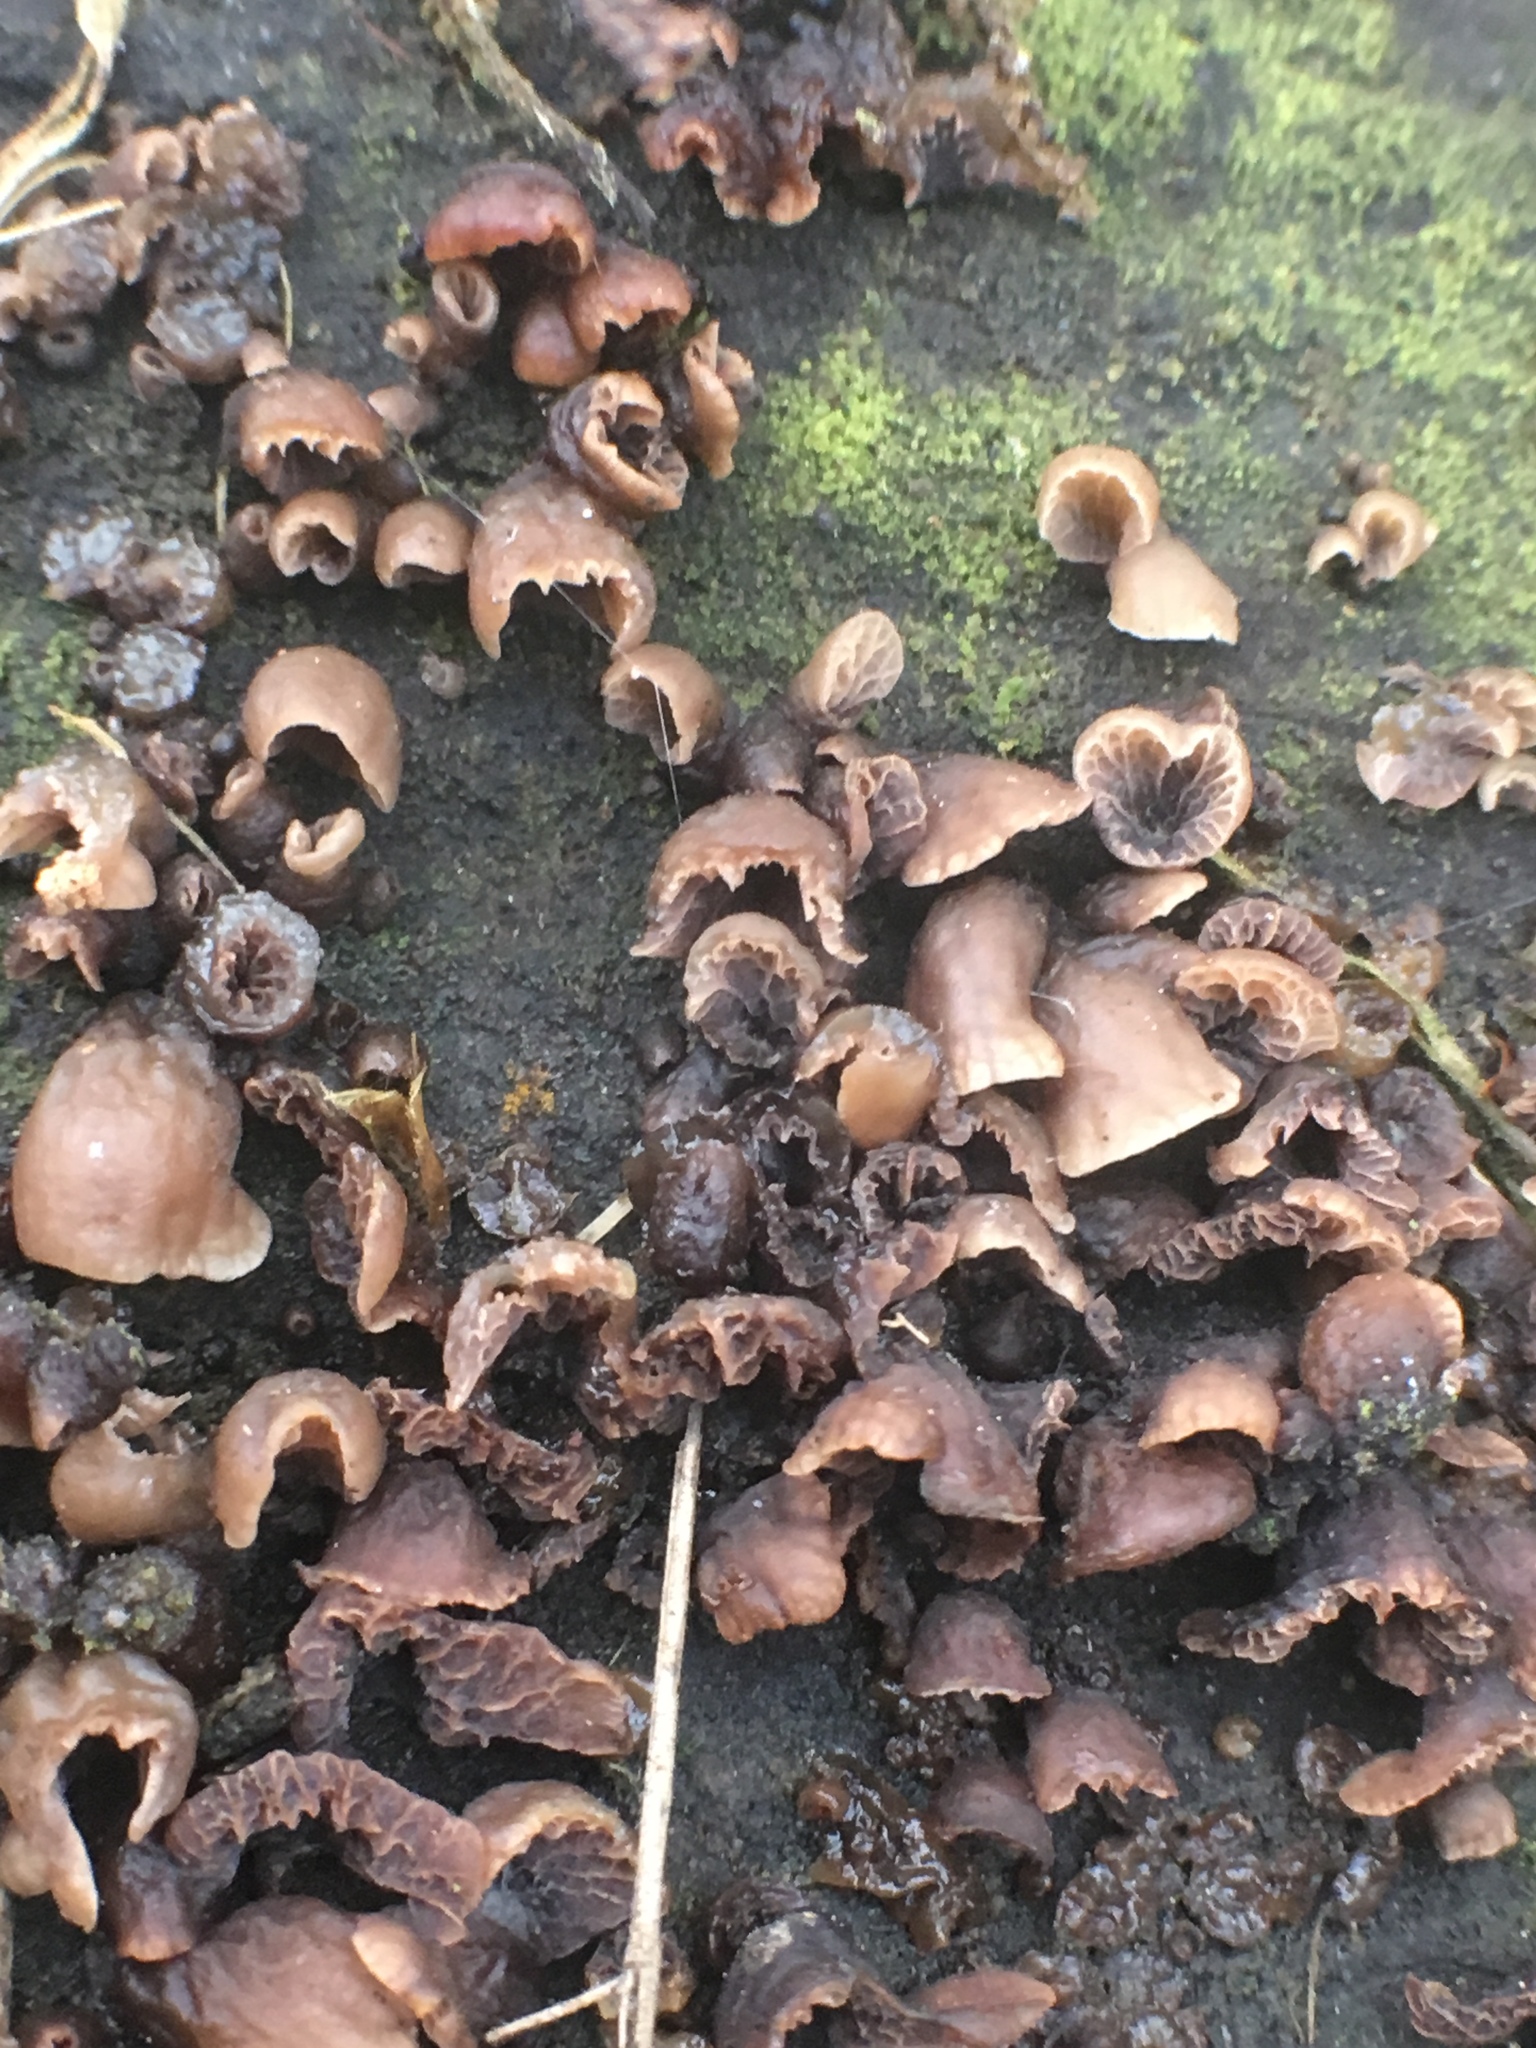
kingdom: Fungi
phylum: Basidiomycota
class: Agaricomycetes
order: Agaricales
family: Pleurotaceae
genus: Resupinatus
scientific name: Resupinatus merulioides
